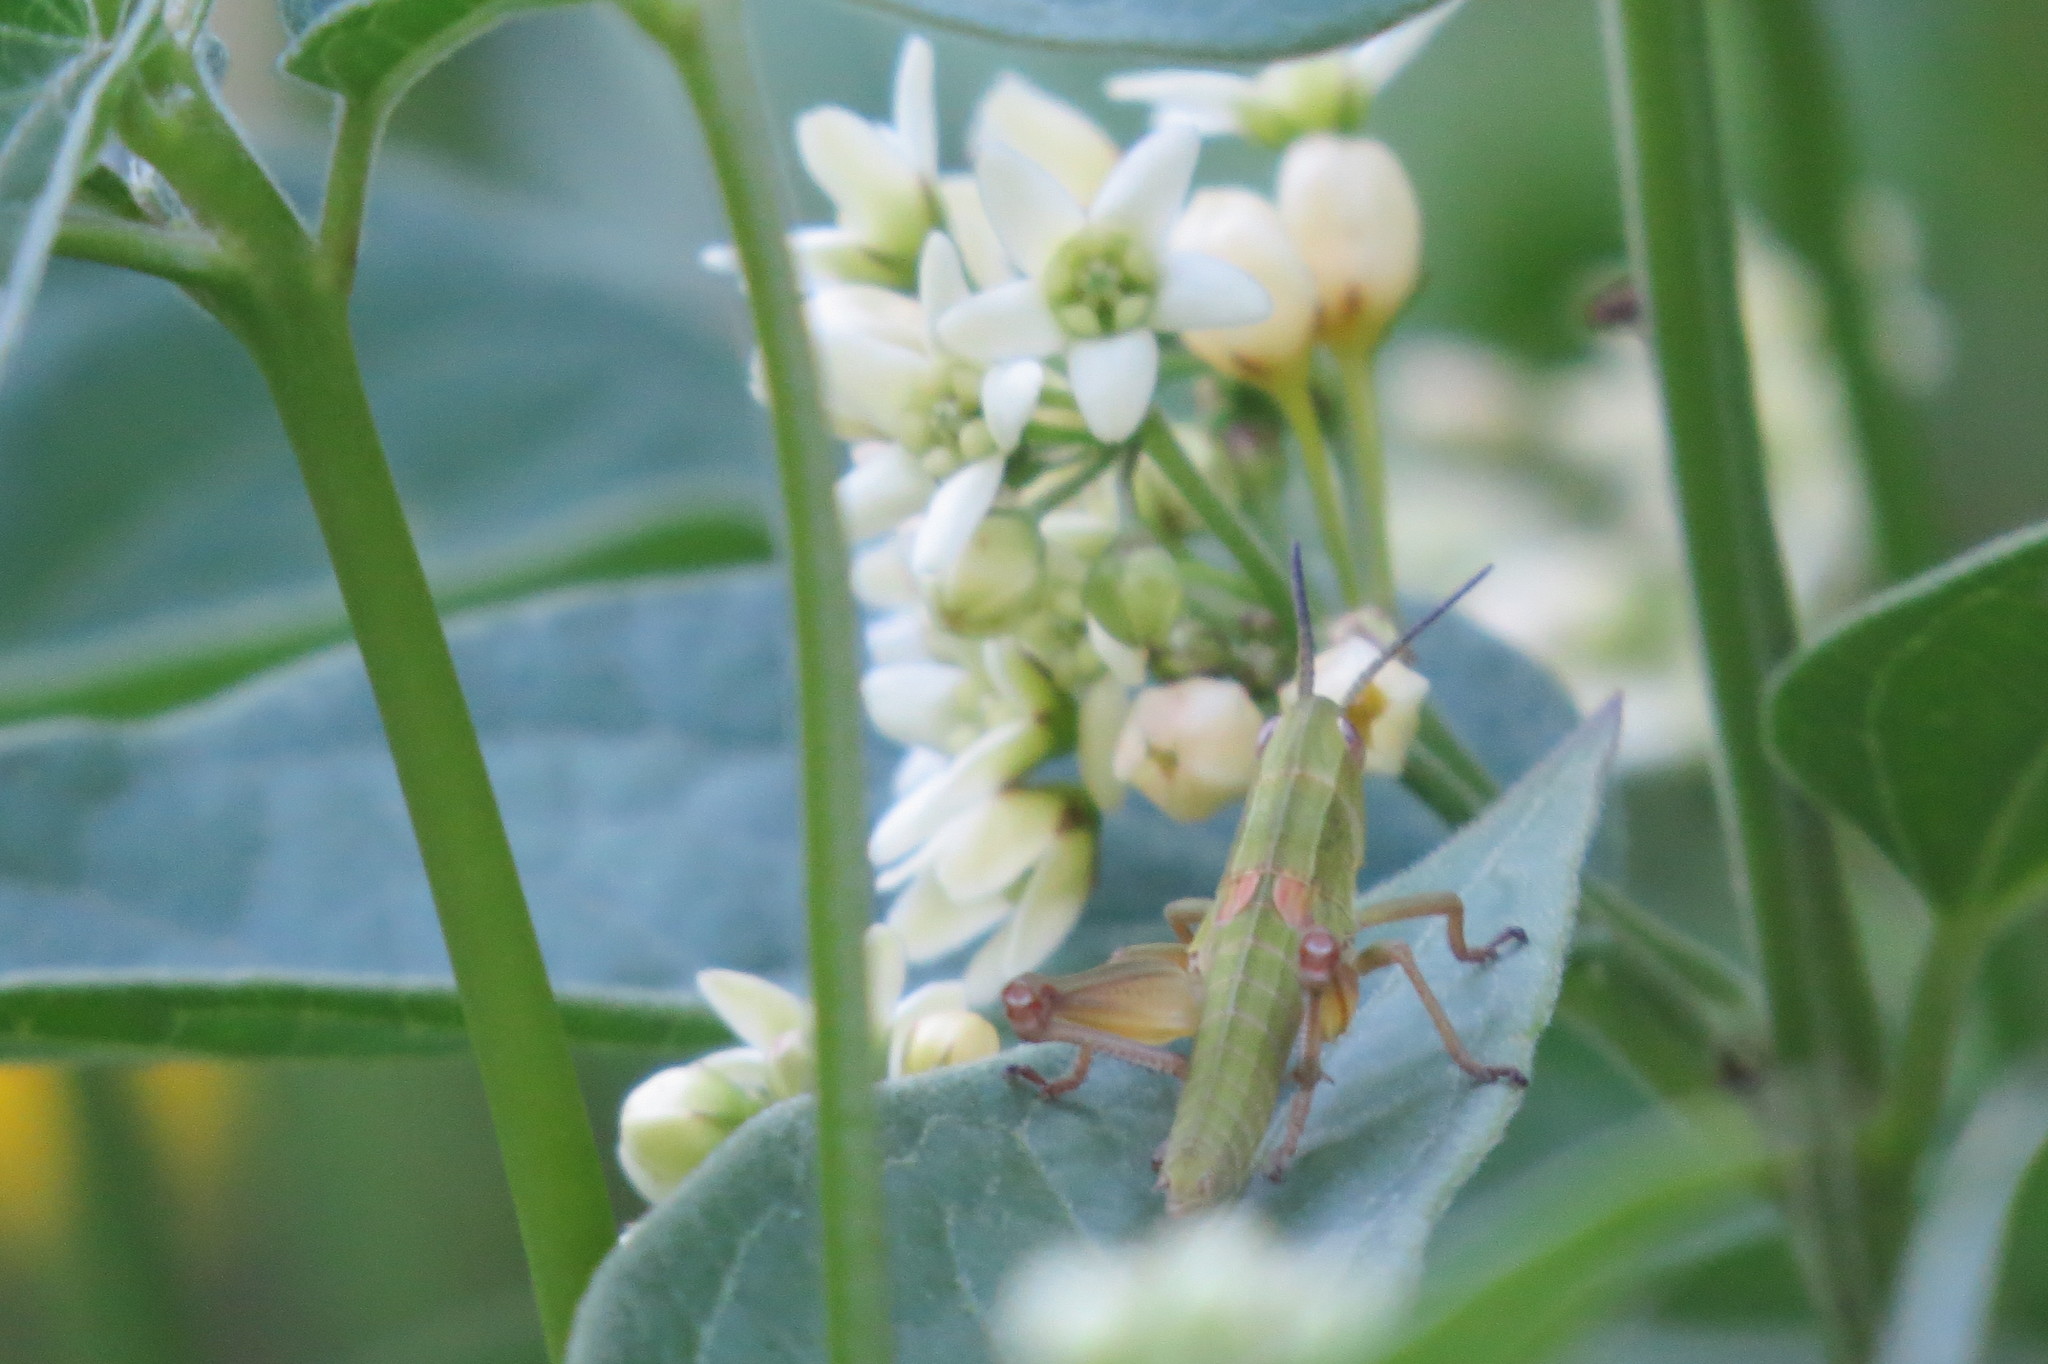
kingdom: Animalia
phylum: Arthropoda
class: Insecta
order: Orthoptera
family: Acrididae
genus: Euthystira
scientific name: Euthystira brachyptera
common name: Small gold grasshopper
